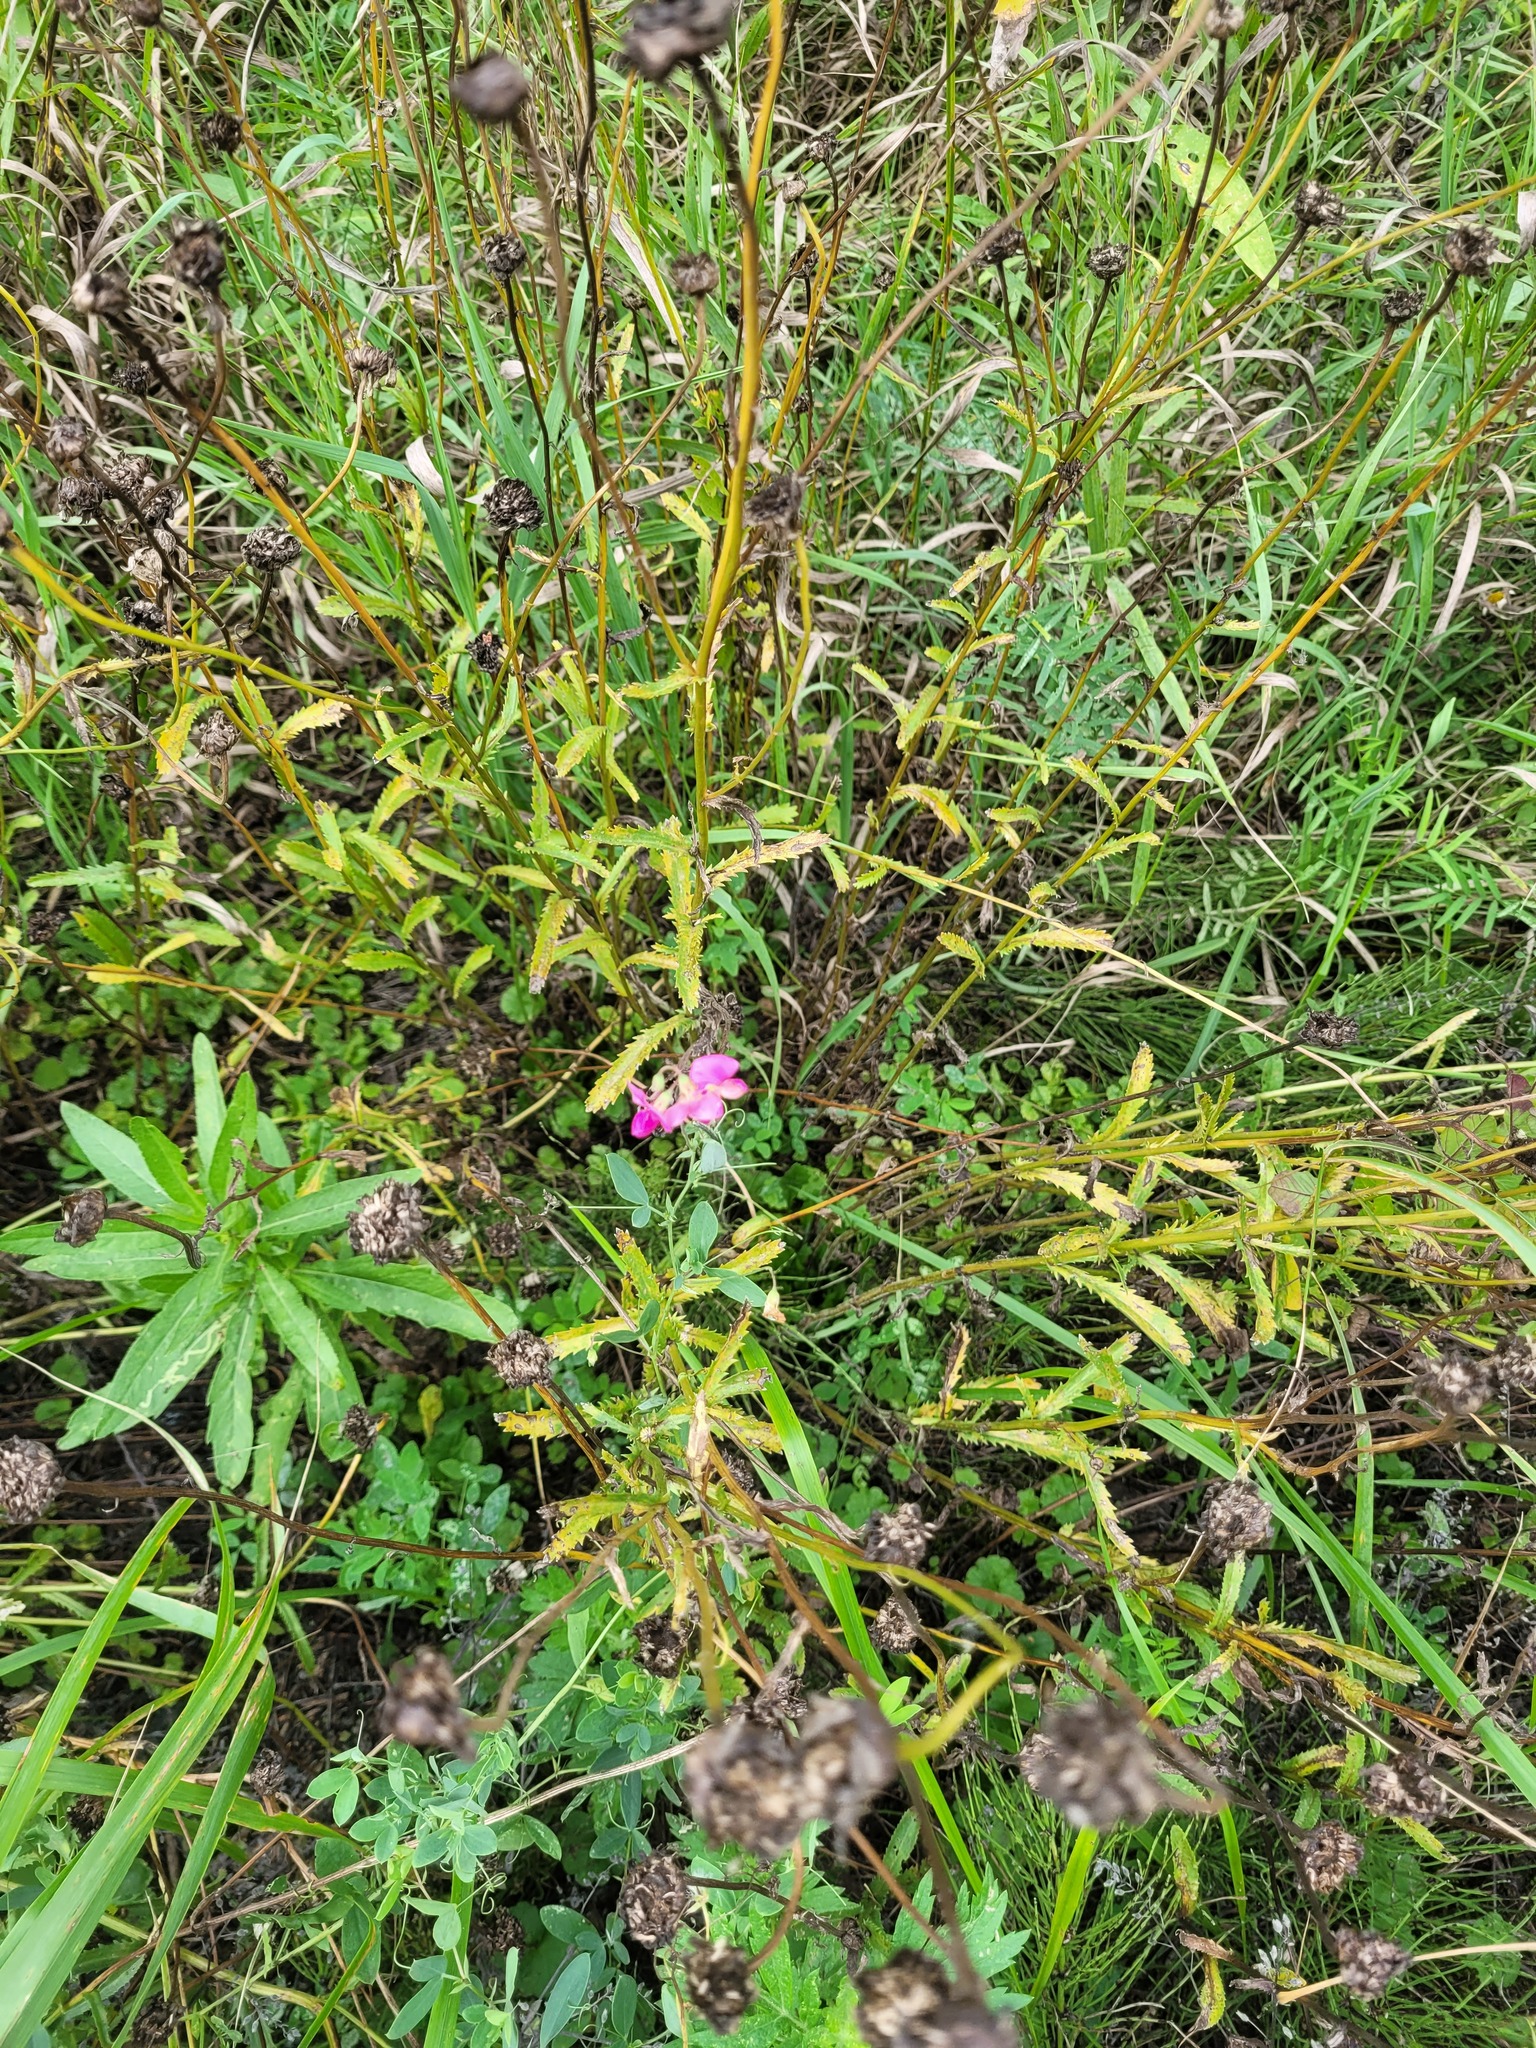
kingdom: Plantae
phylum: Tracheophyta
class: Magnoliopsida
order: Fabales
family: Fabaceae
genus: Lathyrus
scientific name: Lathyrus tuberosus
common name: Tuberous pea
